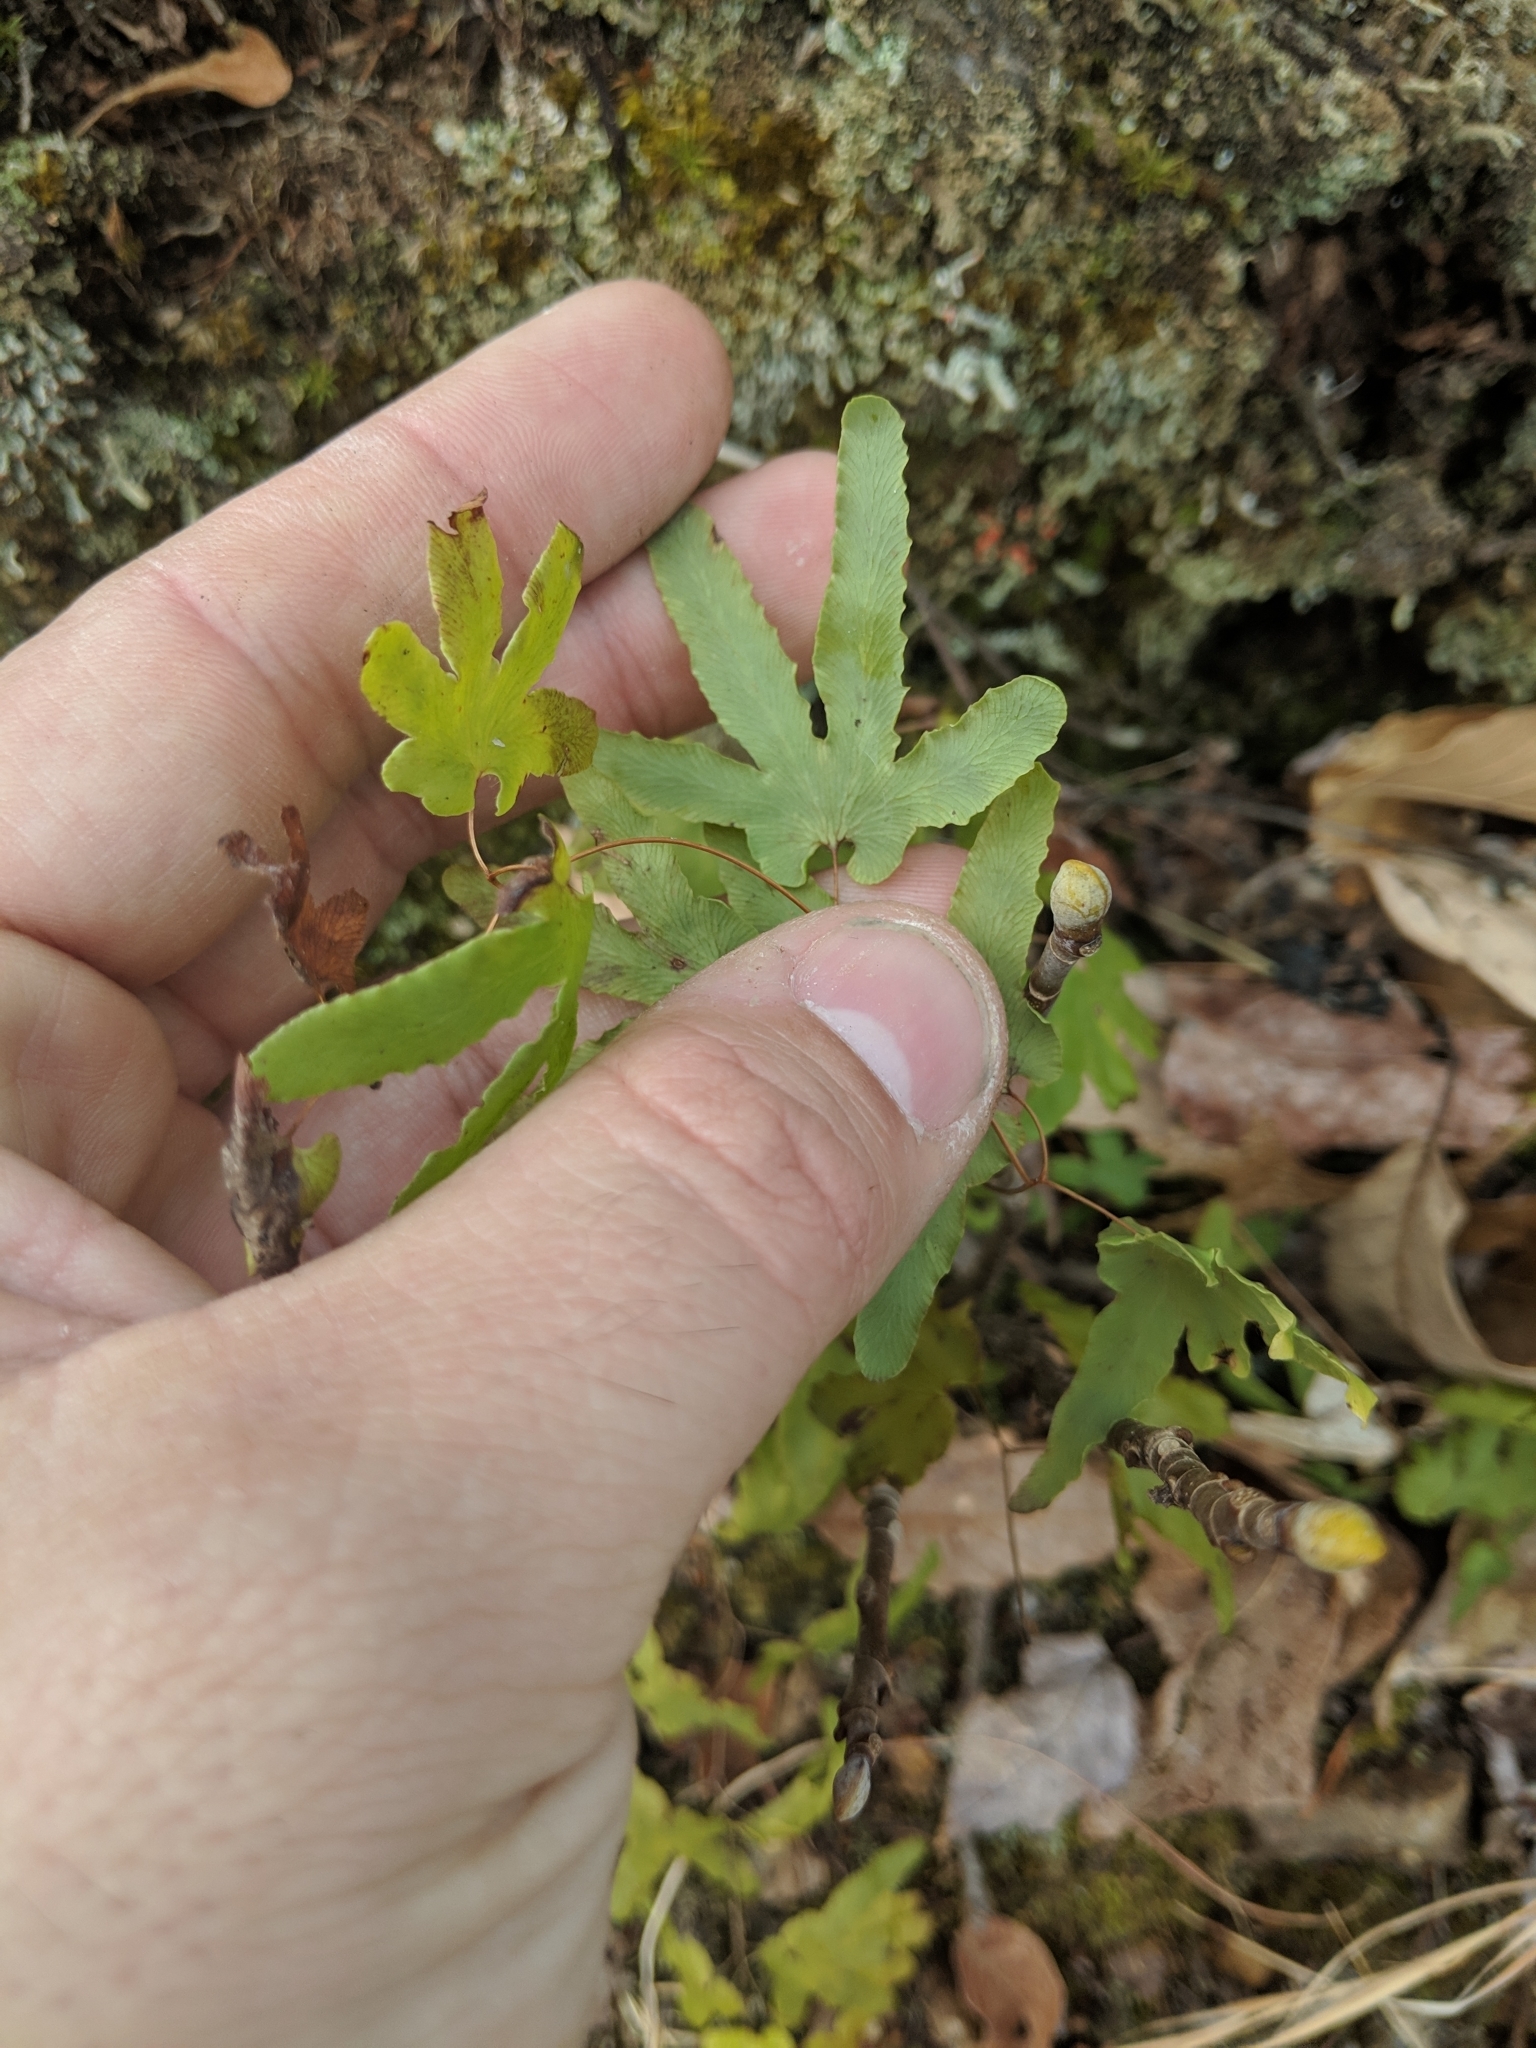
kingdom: Plantae
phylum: Tracheophyta
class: Polypodiopsida
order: Schizaeales
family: Lygodiaceae
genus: Lygodium
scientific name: Lygodium palmatum
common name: American climbing fern
